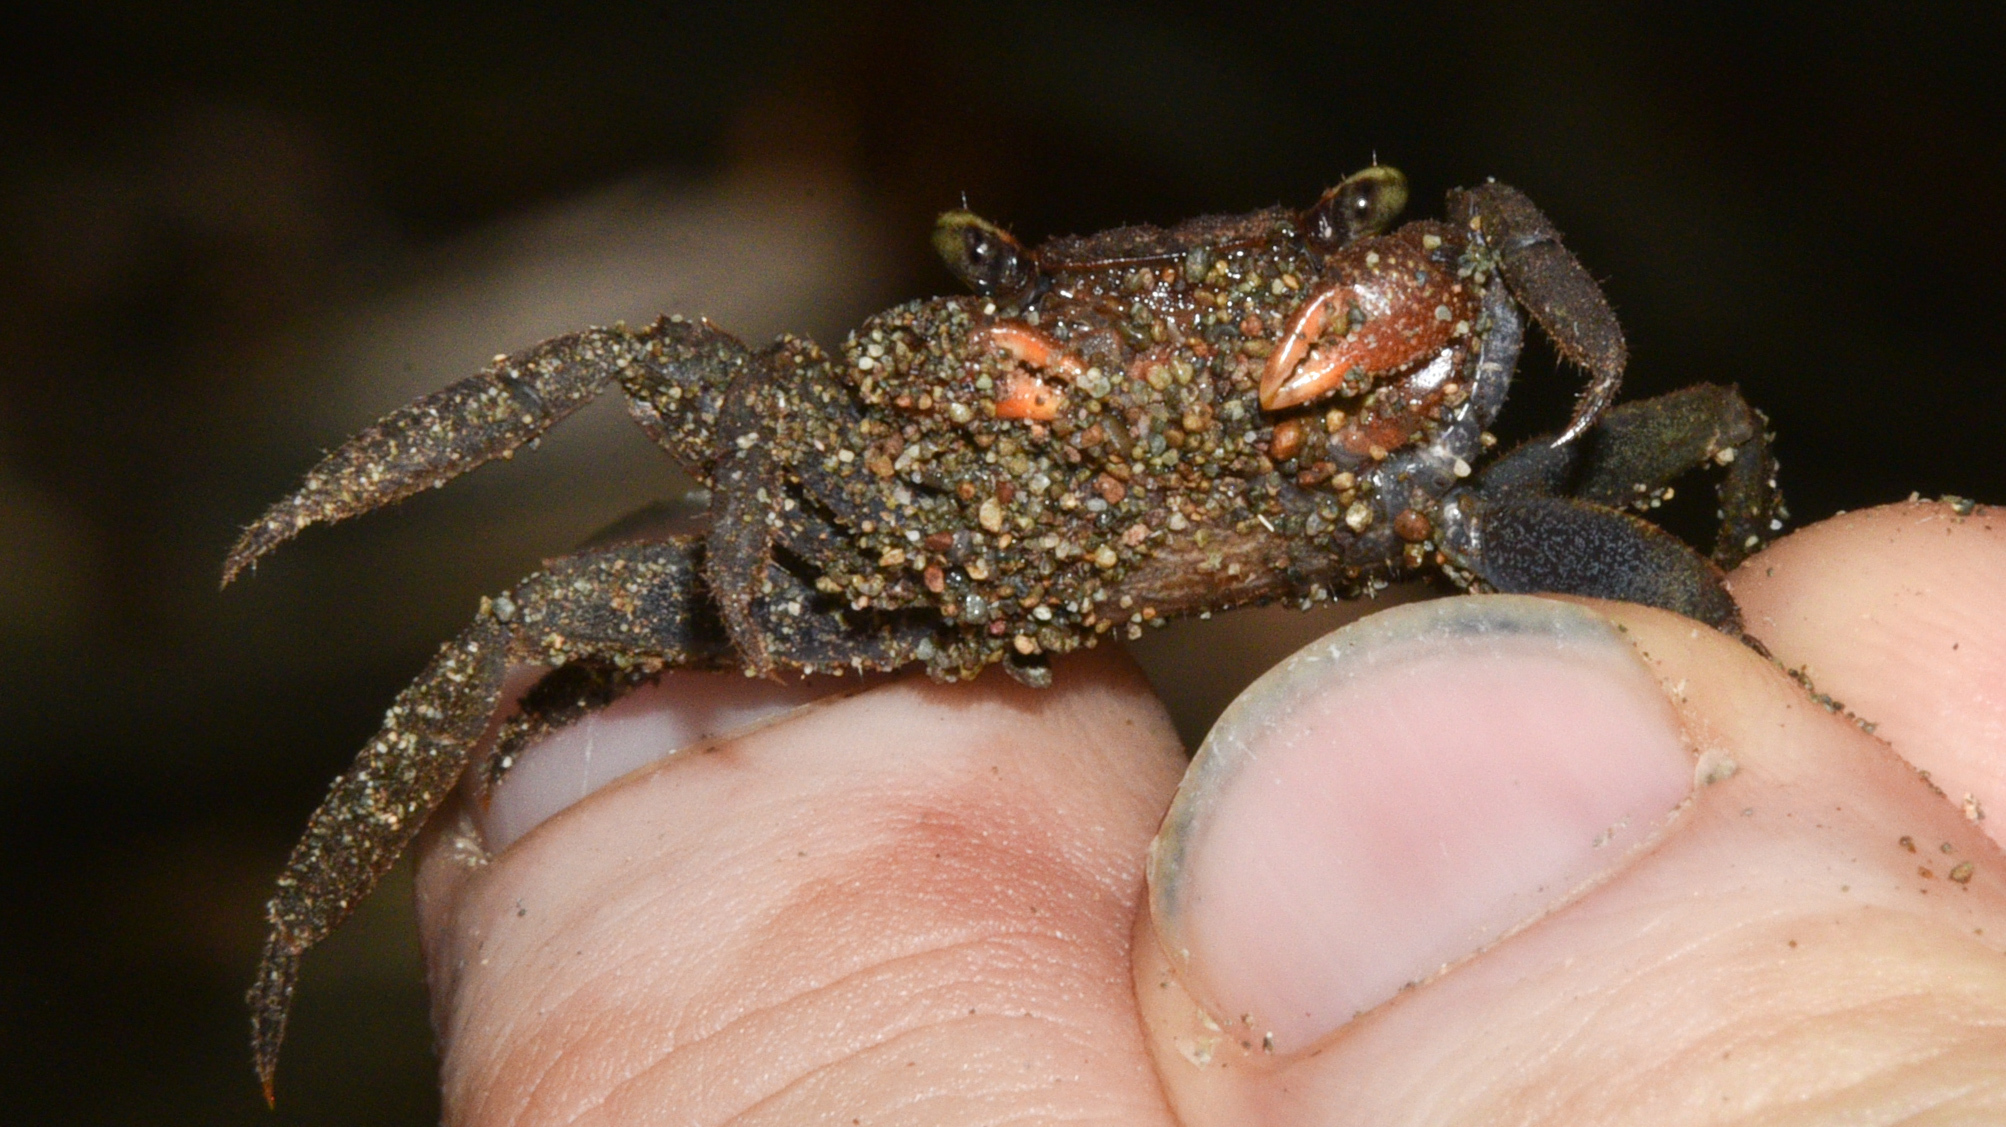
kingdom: Animalia
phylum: Arthropoda
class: Malacostraca
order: Decapoda
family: Sesarmidae
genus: Armases
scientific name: Armases occidentale
